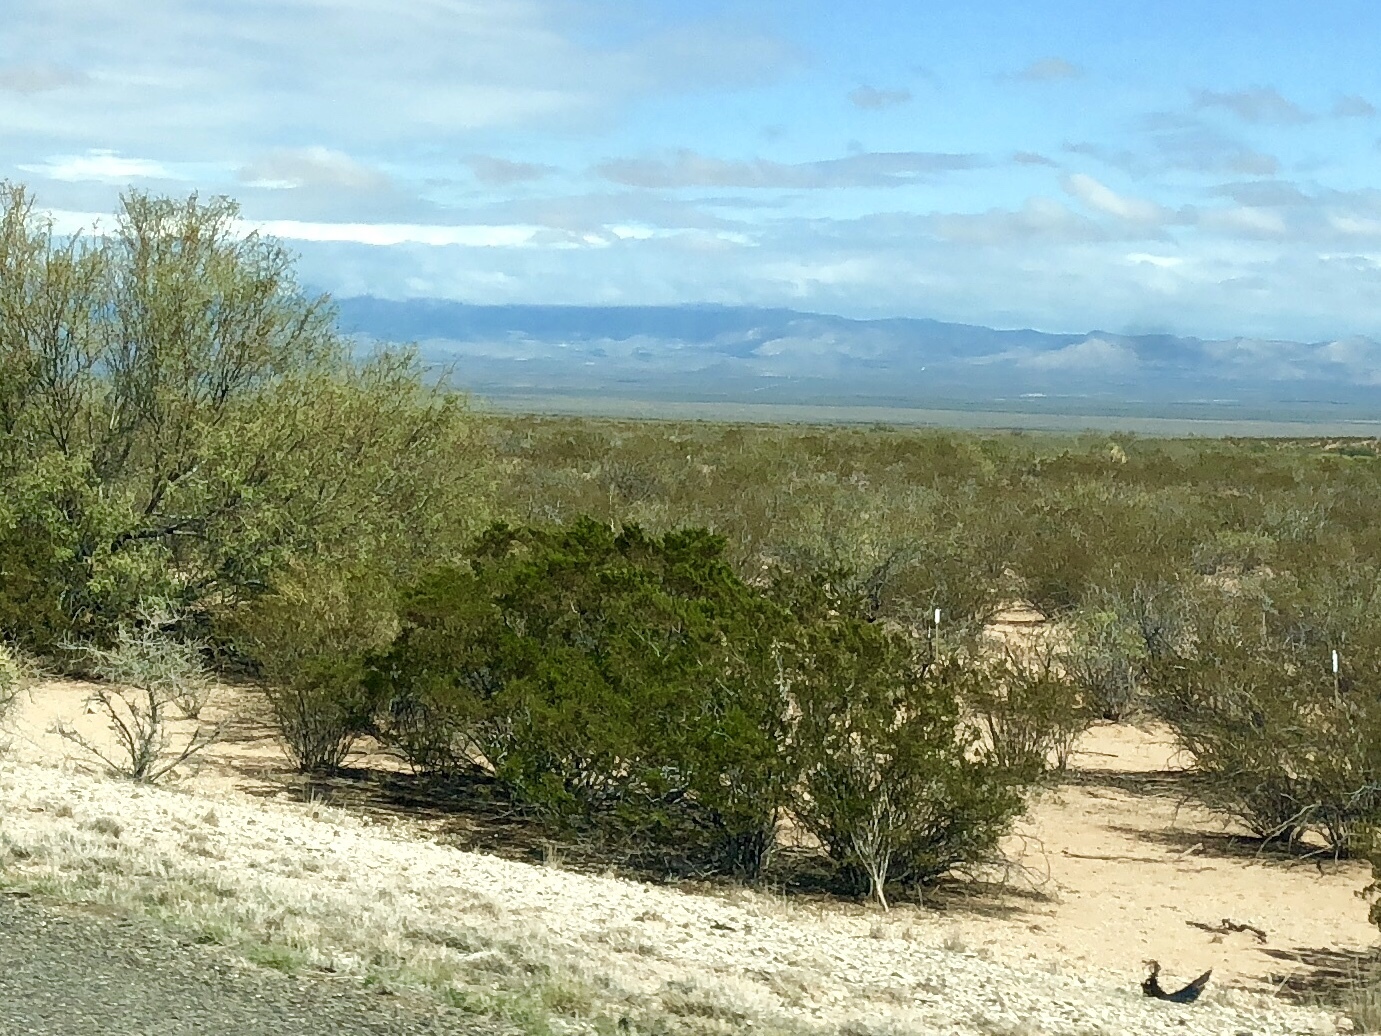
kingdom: Plantae
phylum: Tracheophyta
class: Magnoliopsida
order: Zygophyllales
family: Zygophyllaceae
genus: Larrea
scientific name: Larrea tridentata
